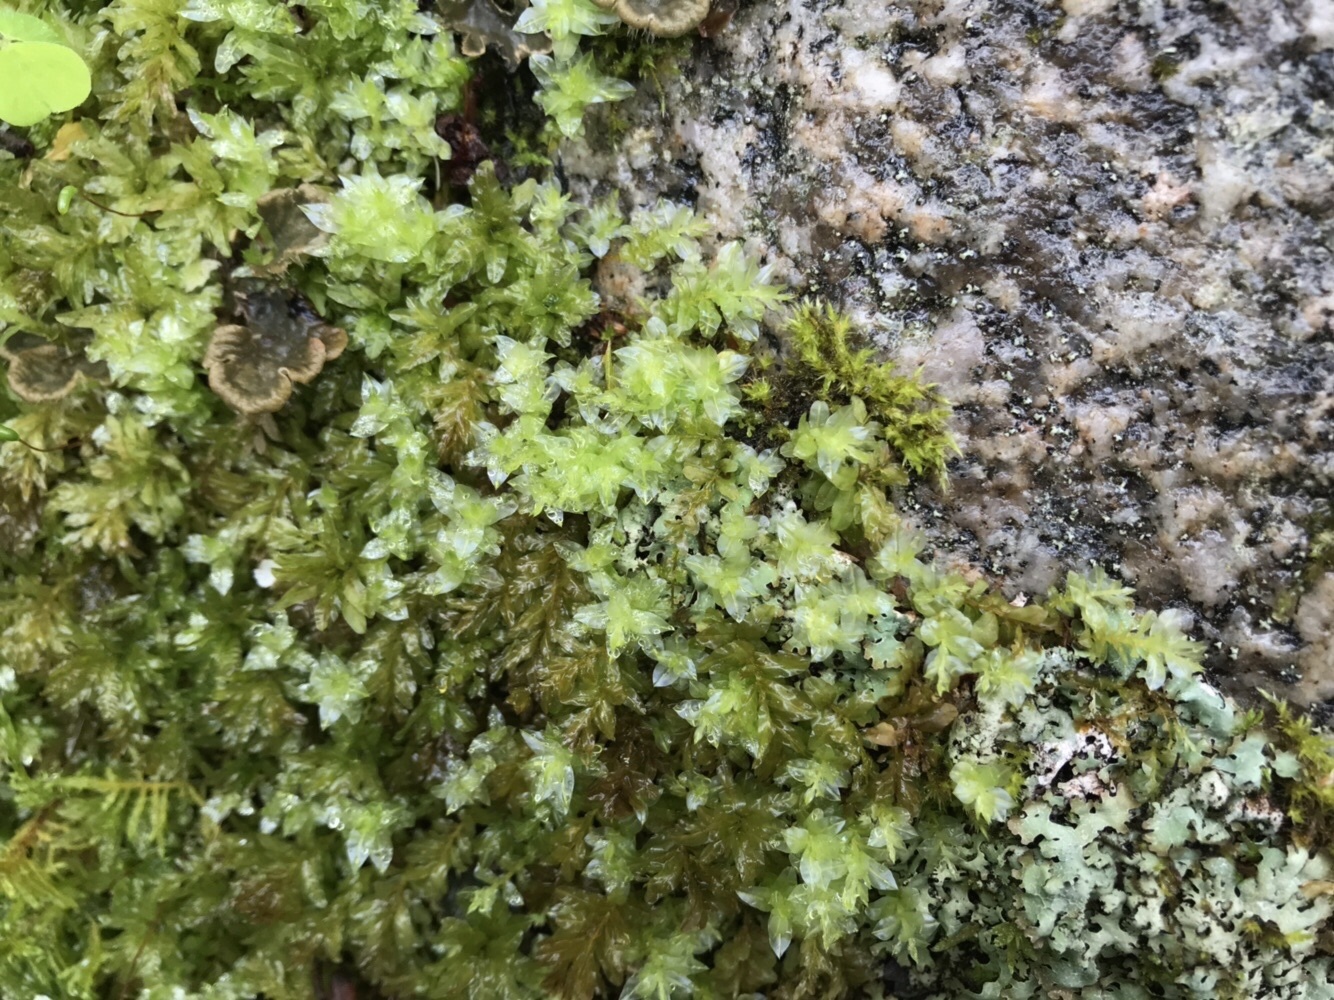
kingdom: Plantae
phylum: Bryophyta
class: Bryopsida
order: Bryales
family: Mniaceae
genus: Plagiomnium
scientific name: Plagiomnium undulatum
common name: Hart's-tongue thyme-moss
